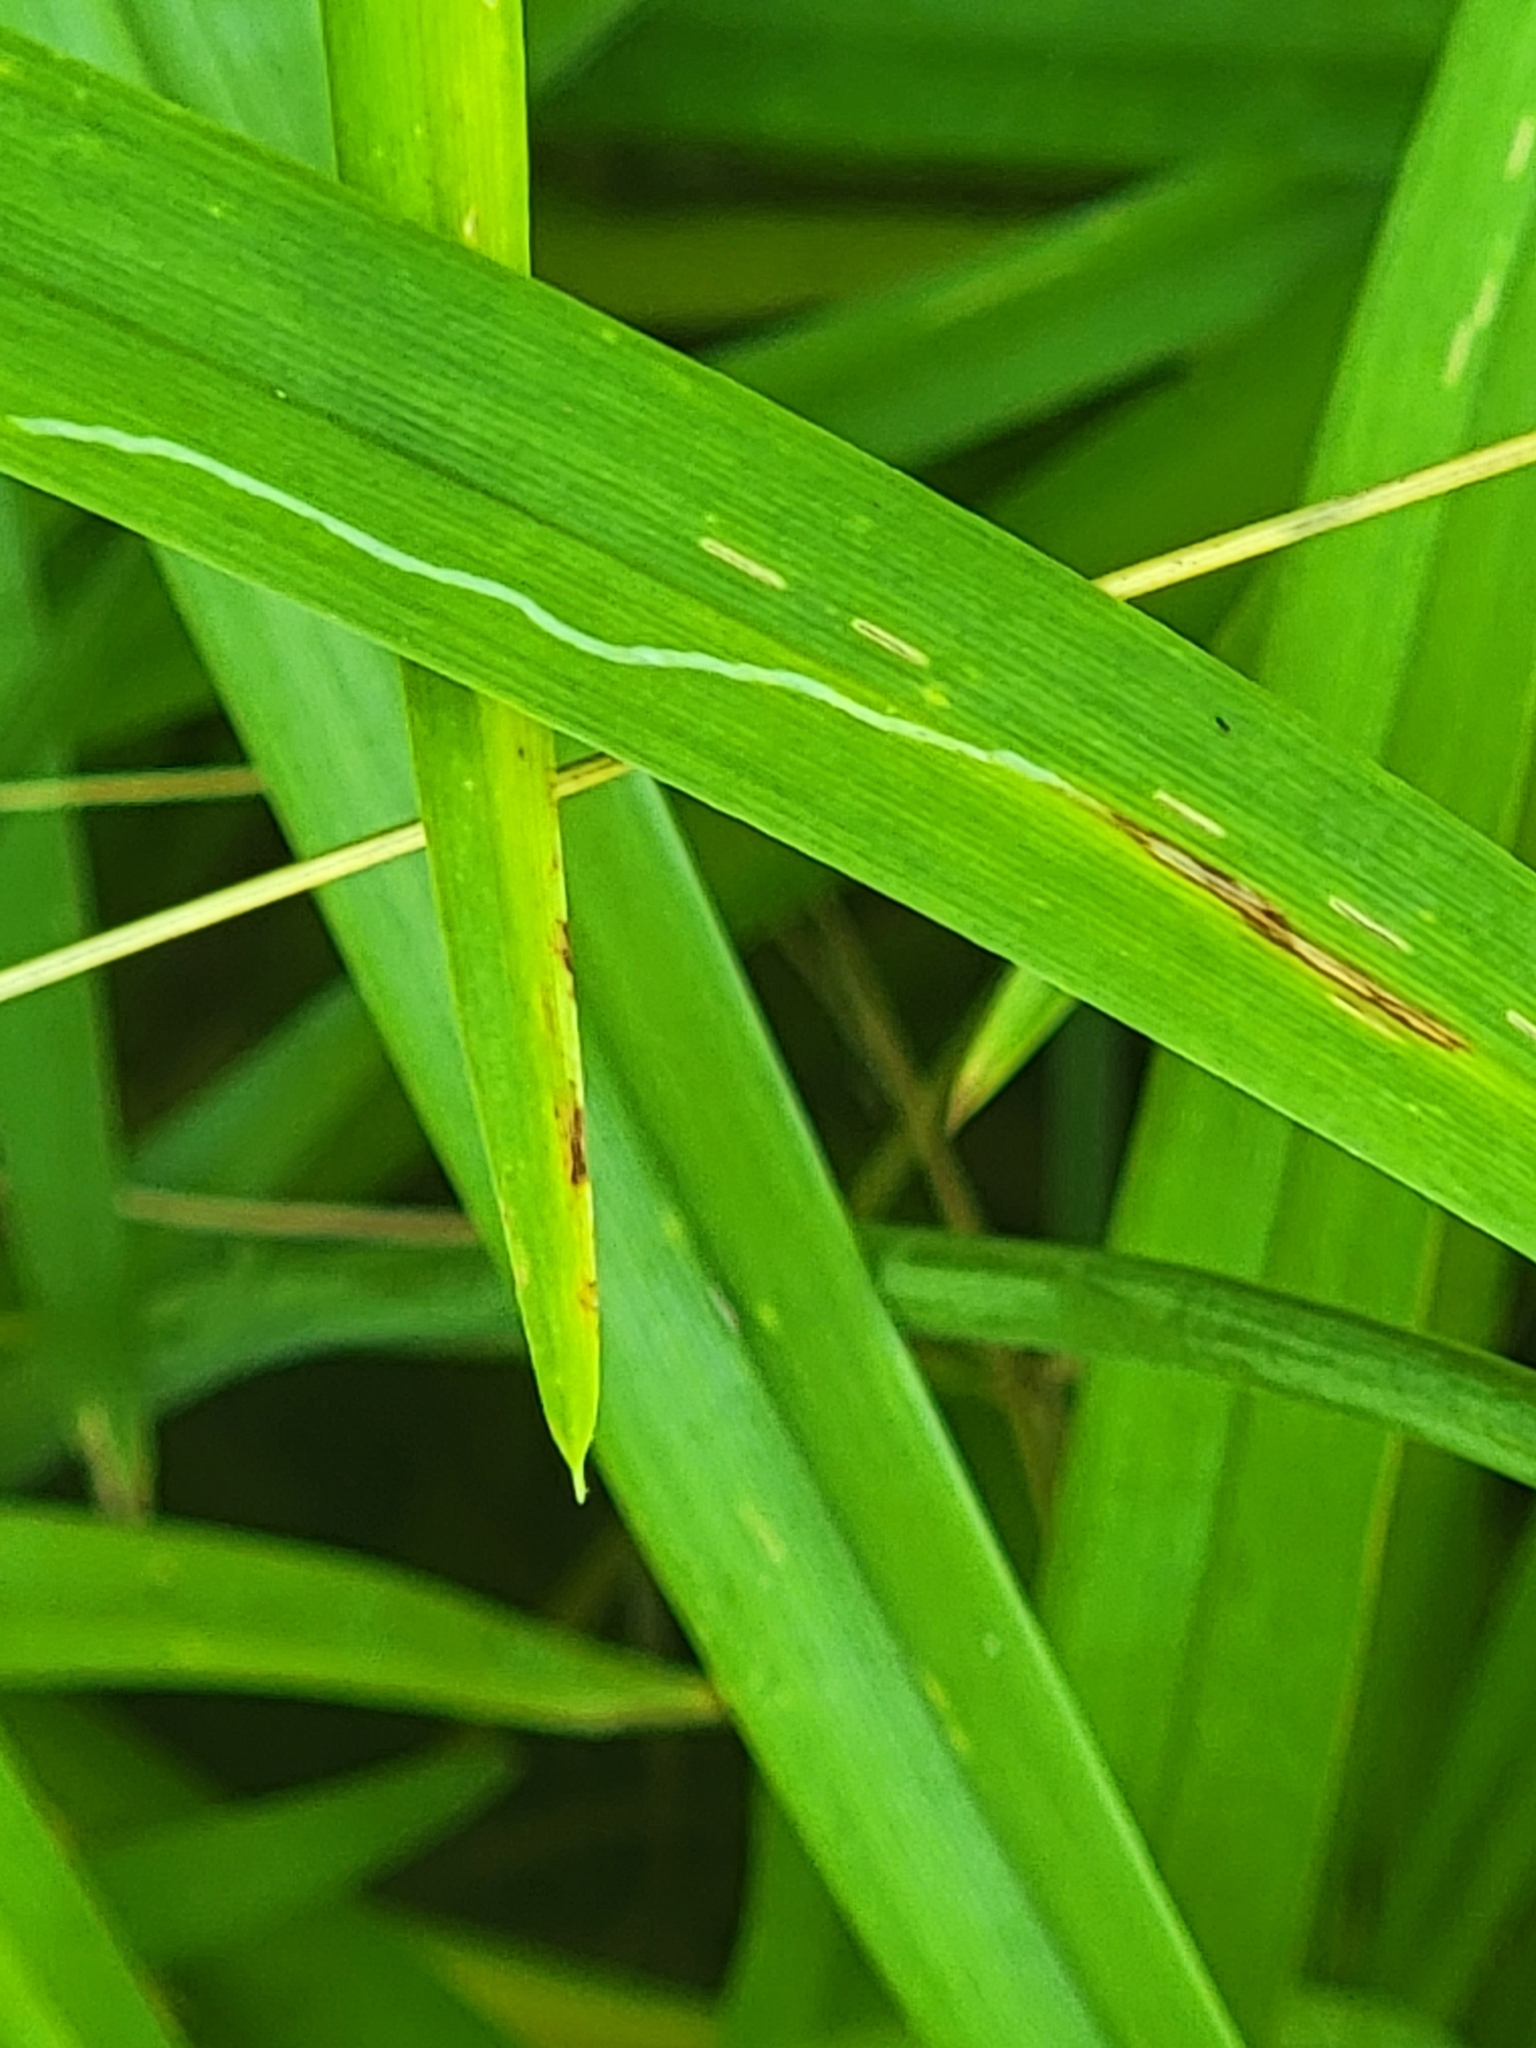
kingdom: Animalia
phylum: Arthropoda
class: Insecta
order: Diptera
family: Agromyzidae
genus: Ophiomyia
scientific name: Ophiomyia kwansonis
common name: Daylily leafminer
